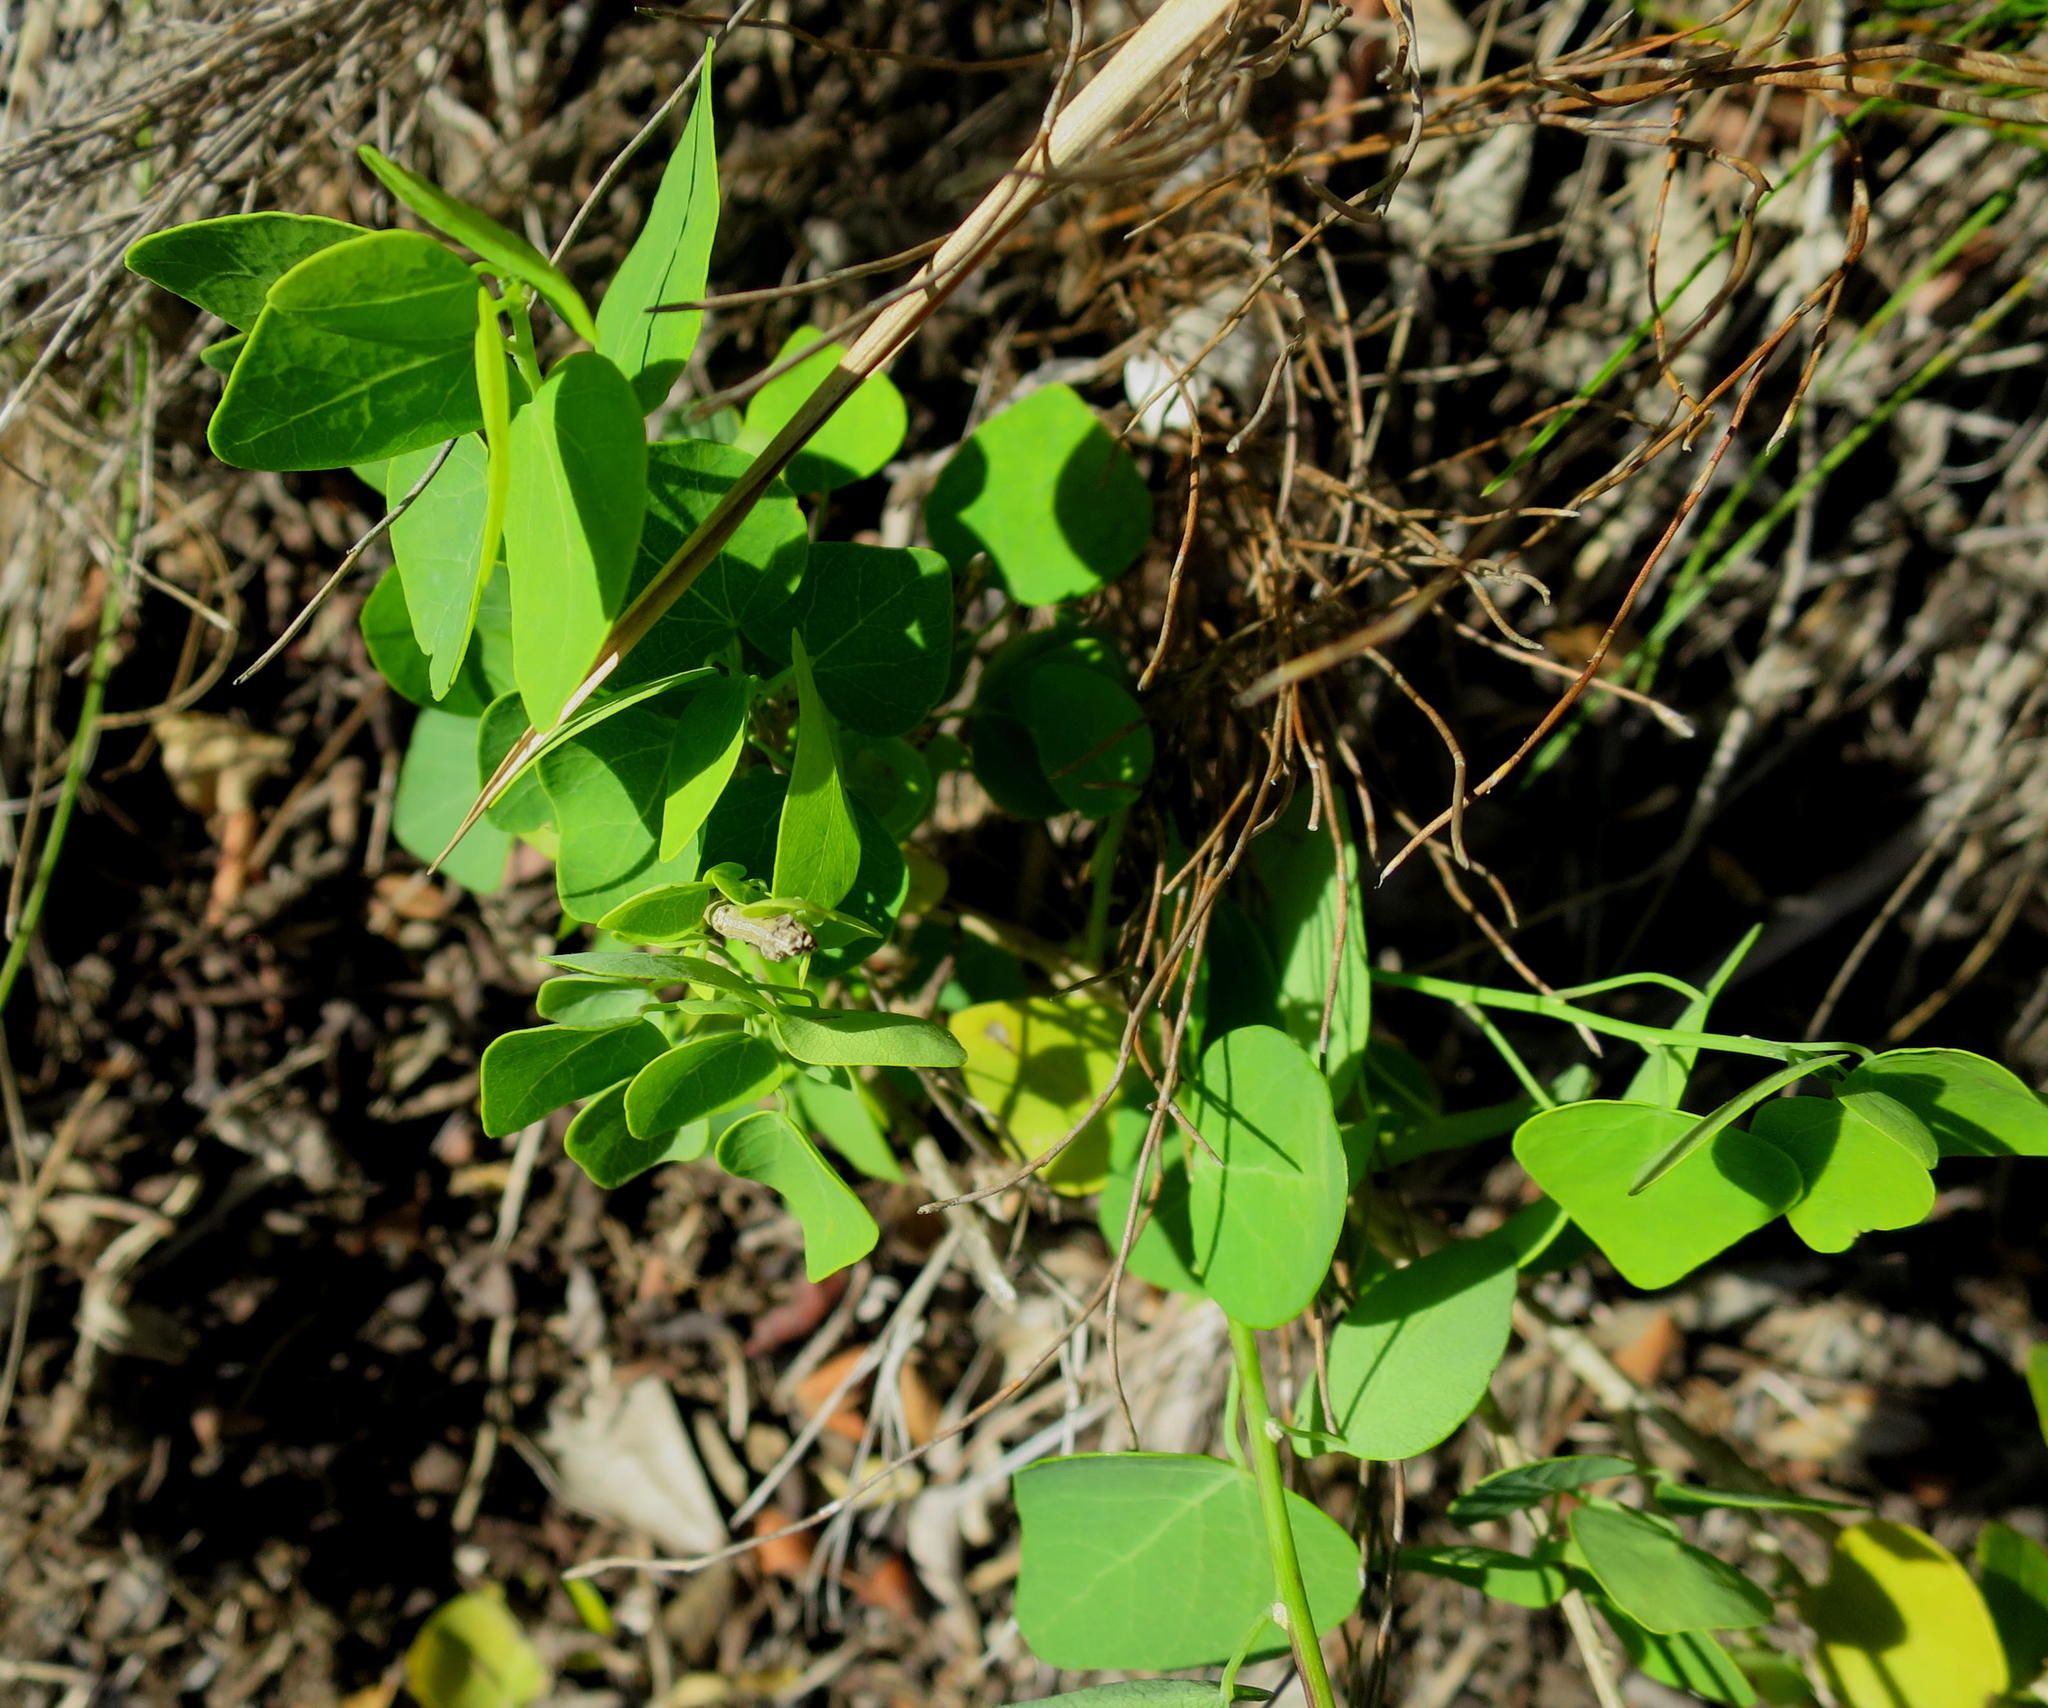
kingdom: Plantae
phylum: Tracheophyta
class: Magnoliopsida
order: Ranunculales
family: Menispermaceae
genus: Cissampelos
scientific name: Cissampelos capensis
